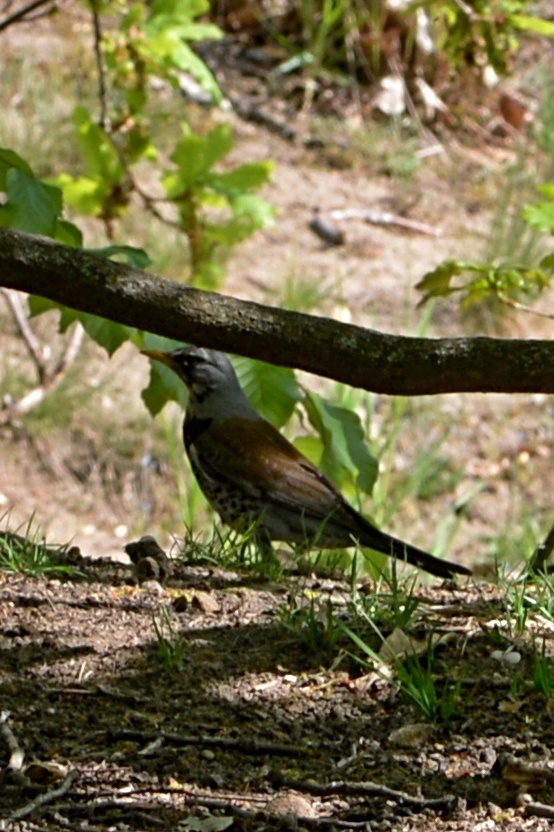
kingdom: Animalia
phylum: Chordata
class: Aves
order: Passeriformes
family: Turdidae
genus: Turdus
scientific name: Turdus pilaris
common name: Fieldfare
